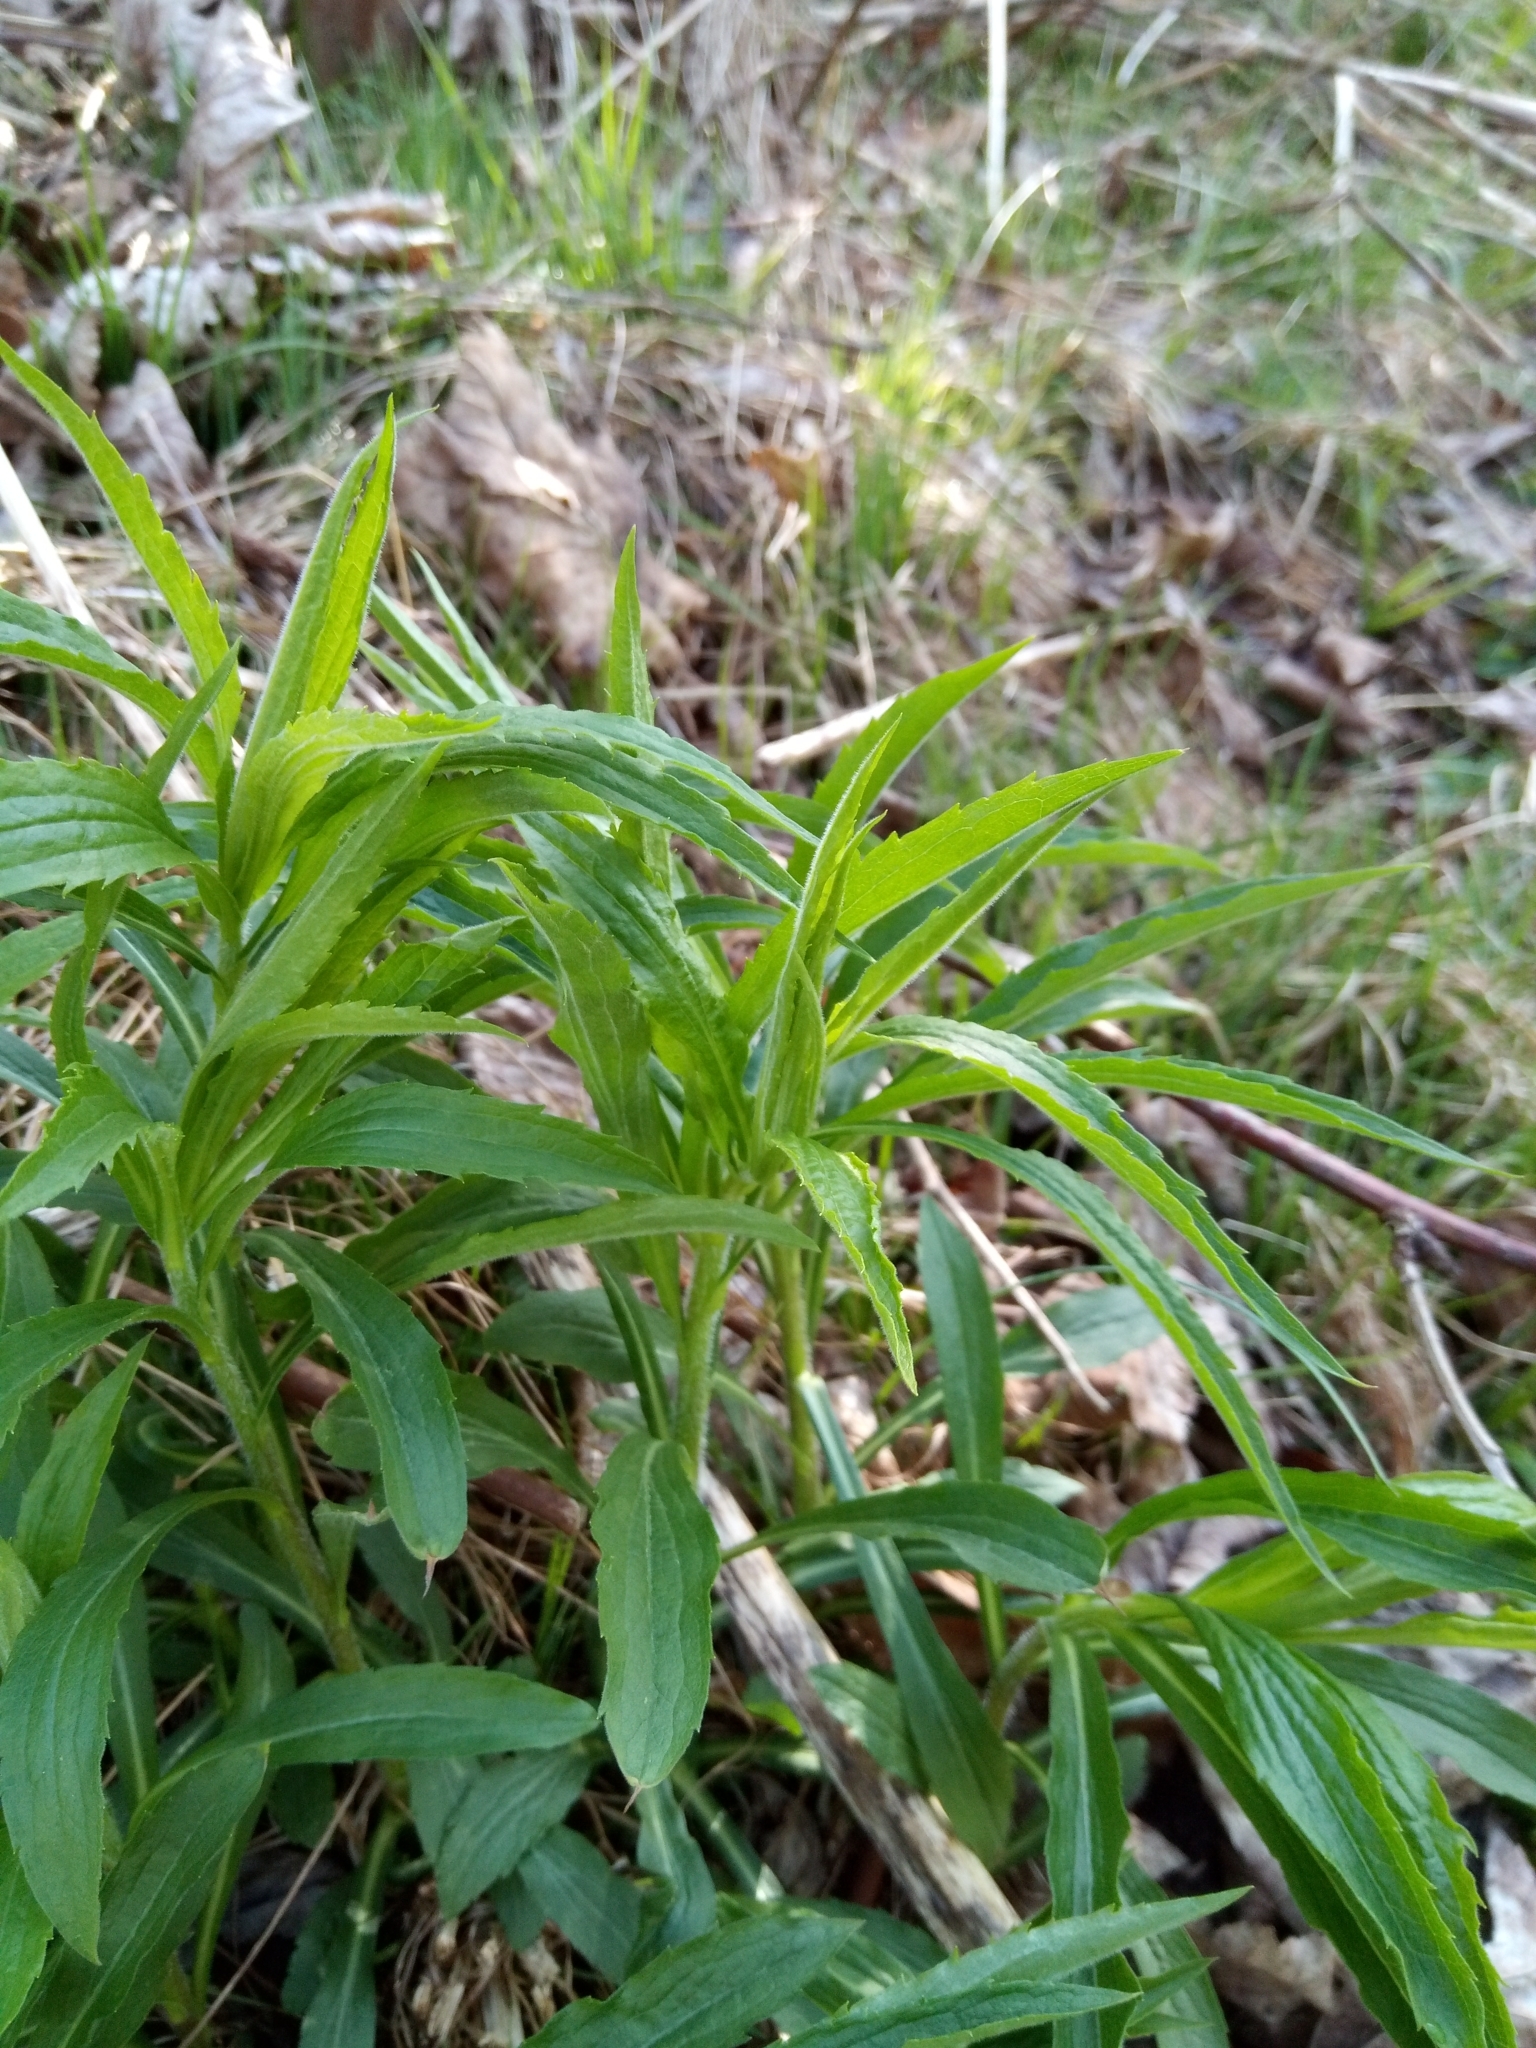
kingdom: Plantae
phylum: Tracheophyta
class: Magnoliopsida
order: Asterales
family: Asteraceae
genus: Solidago
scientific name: Solidago canadensis
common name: Canada goldenrod
